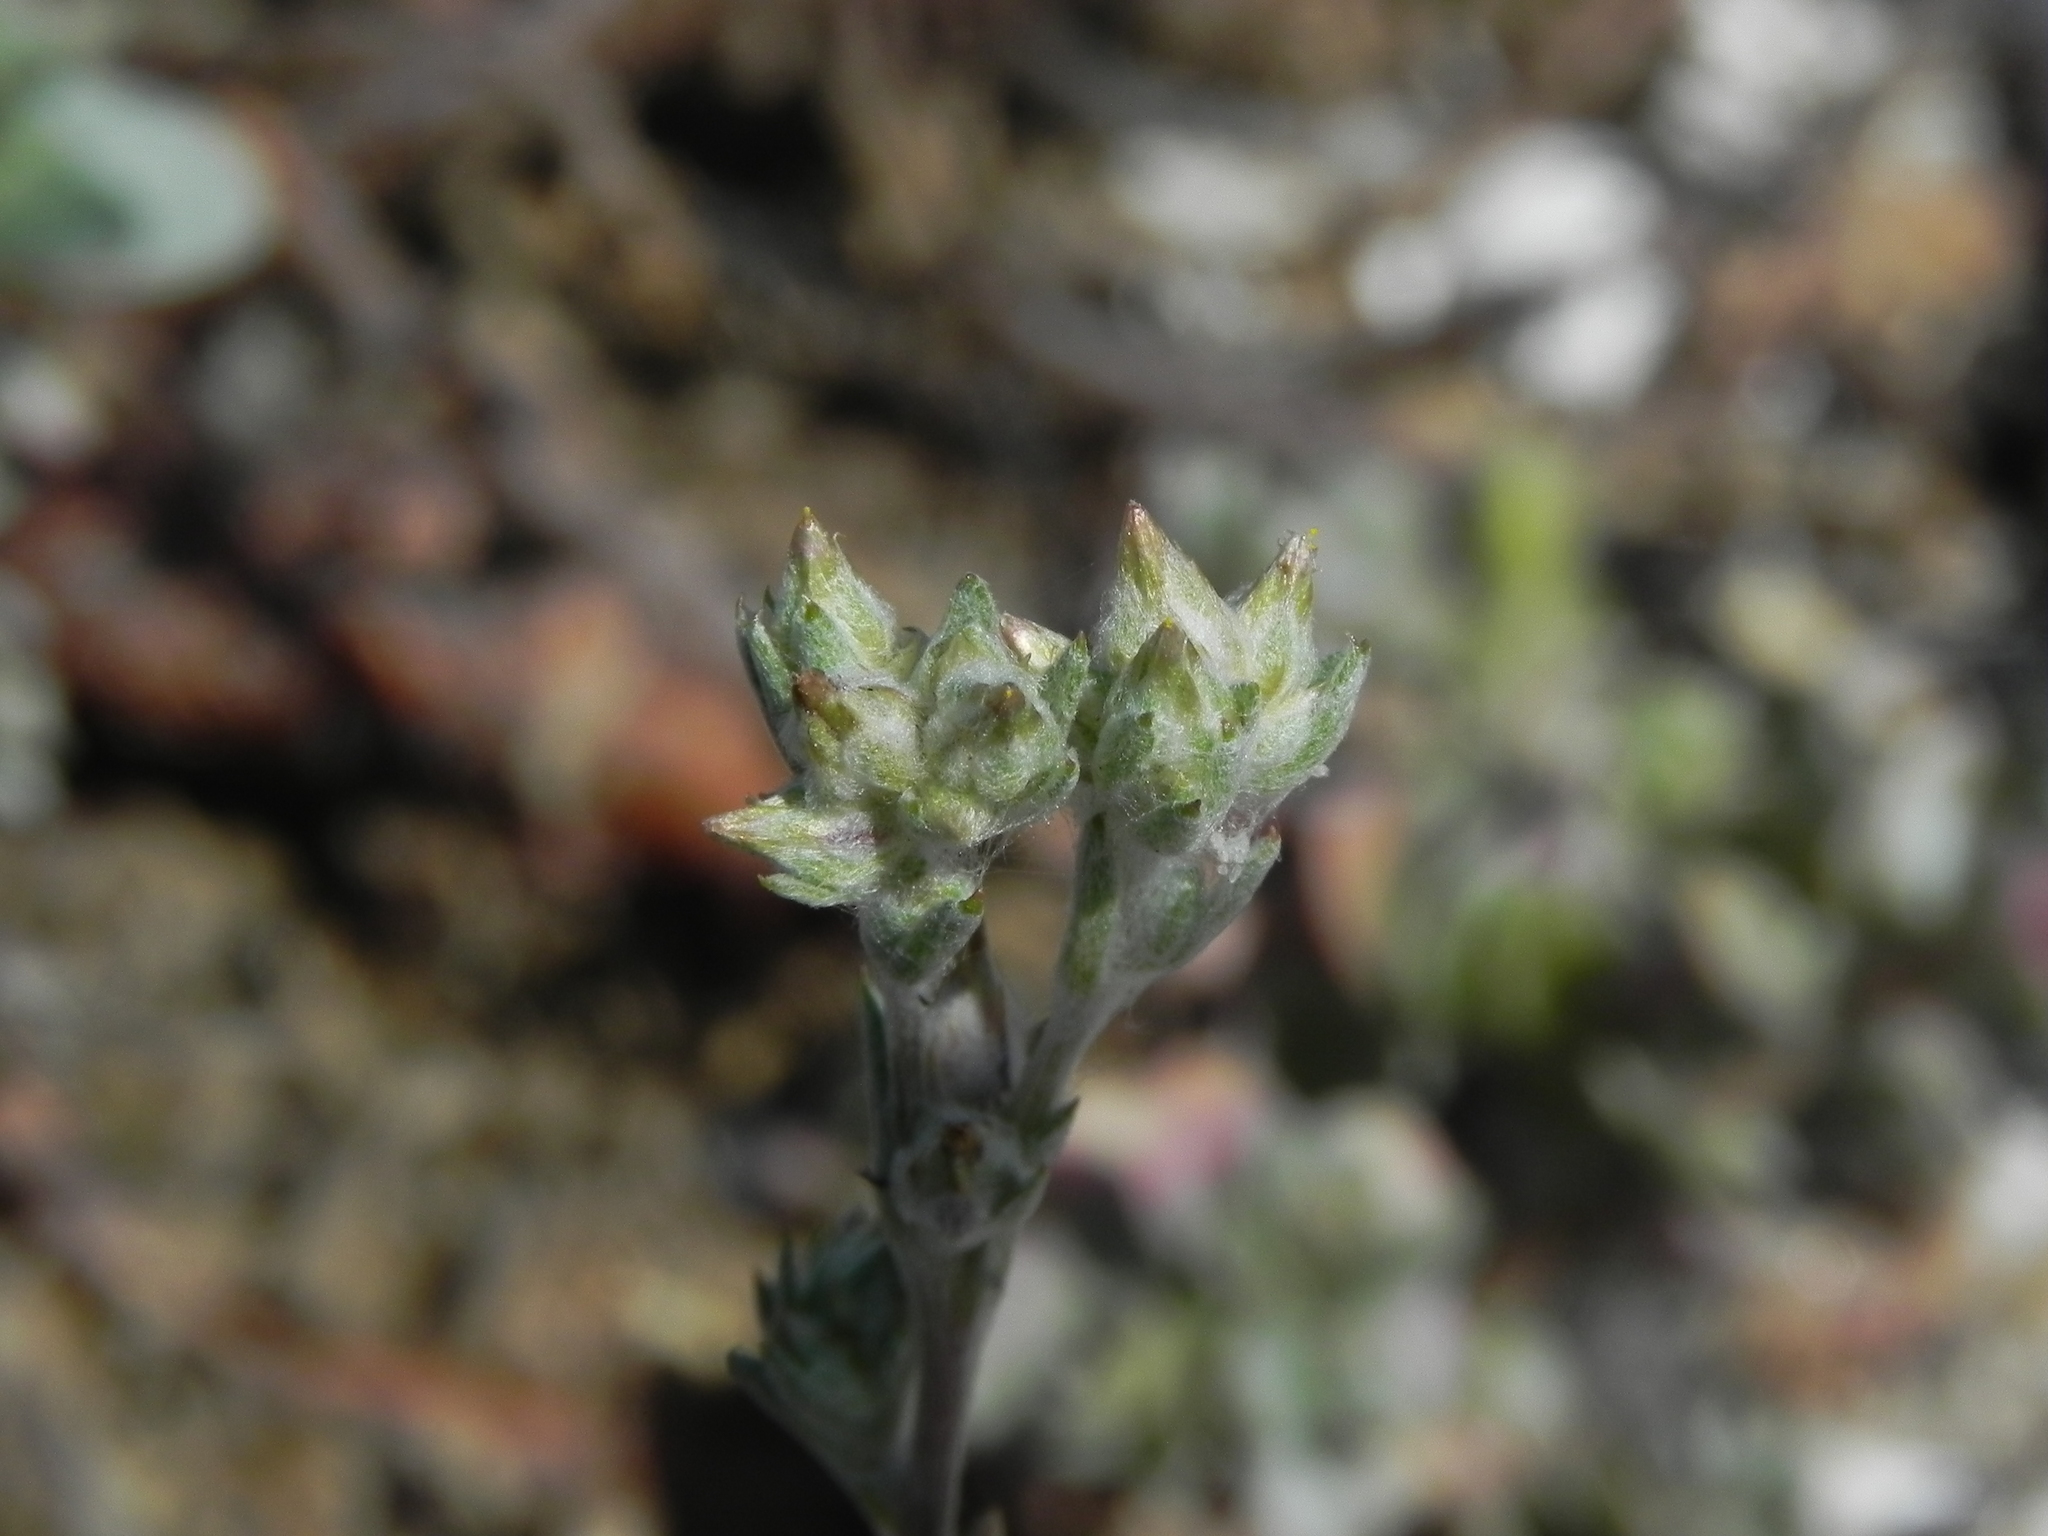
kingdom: Plantae
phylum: Tracheophyta
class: Magnoliopsida
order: Asterales
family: Asteraceae
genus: Logfia
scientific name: Logfia californica
